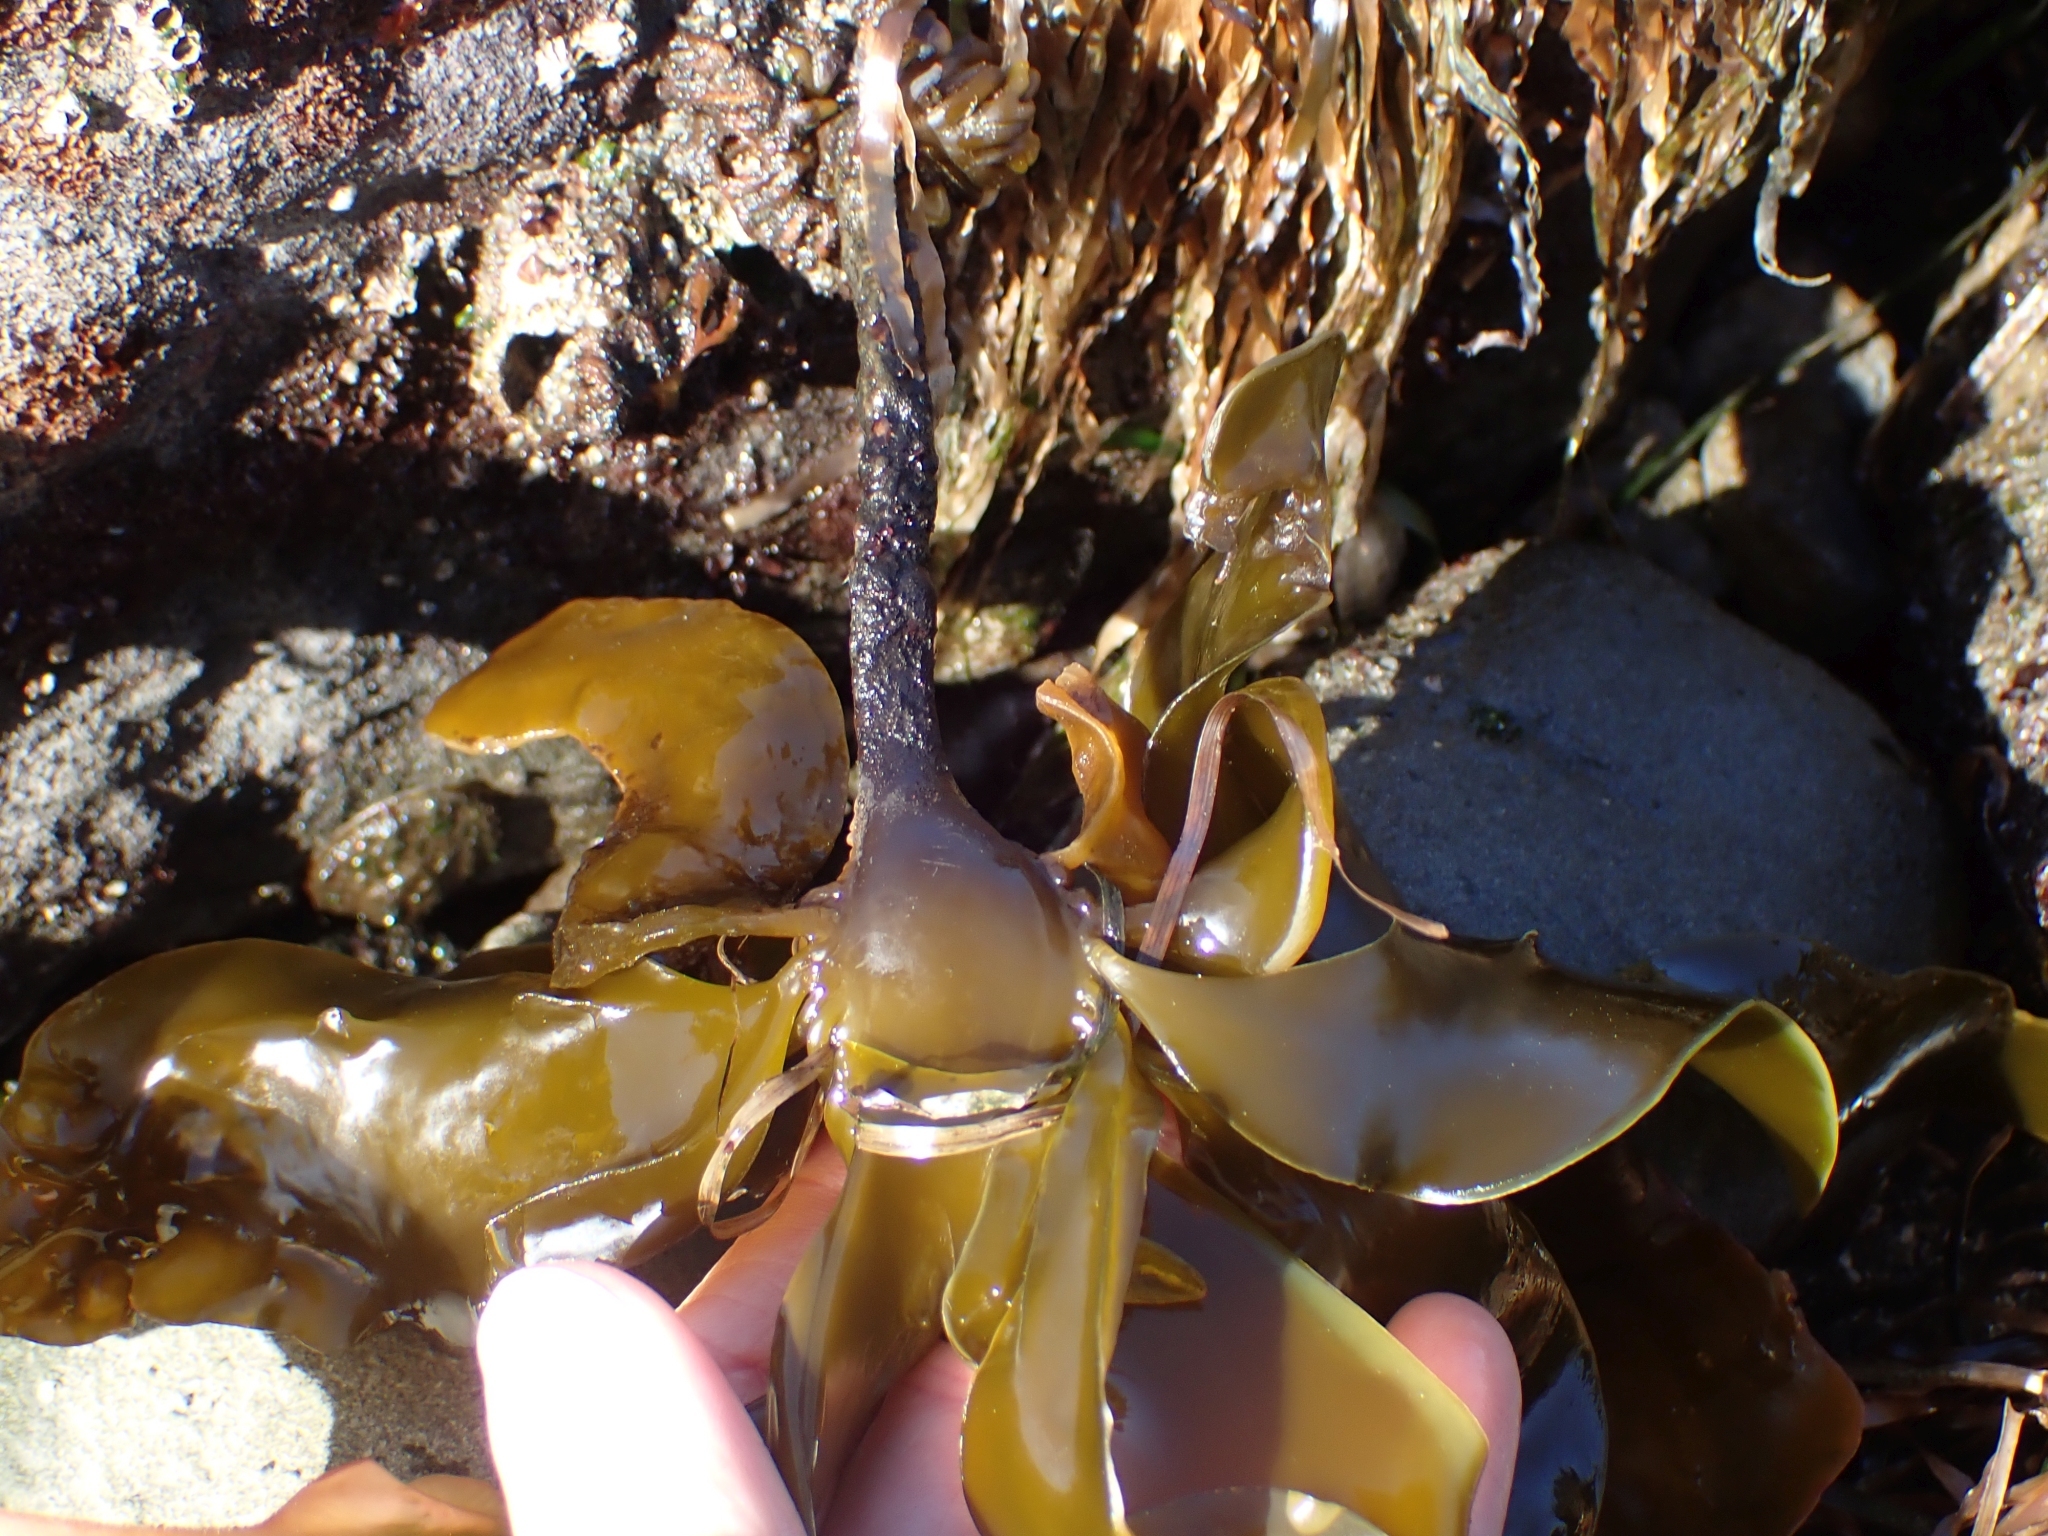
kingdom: Chromista
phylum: Ochrophyta
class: Phaeophyceae
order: Laminariales
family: Alariaceae
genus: Alaria
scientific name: Alaria marginata
